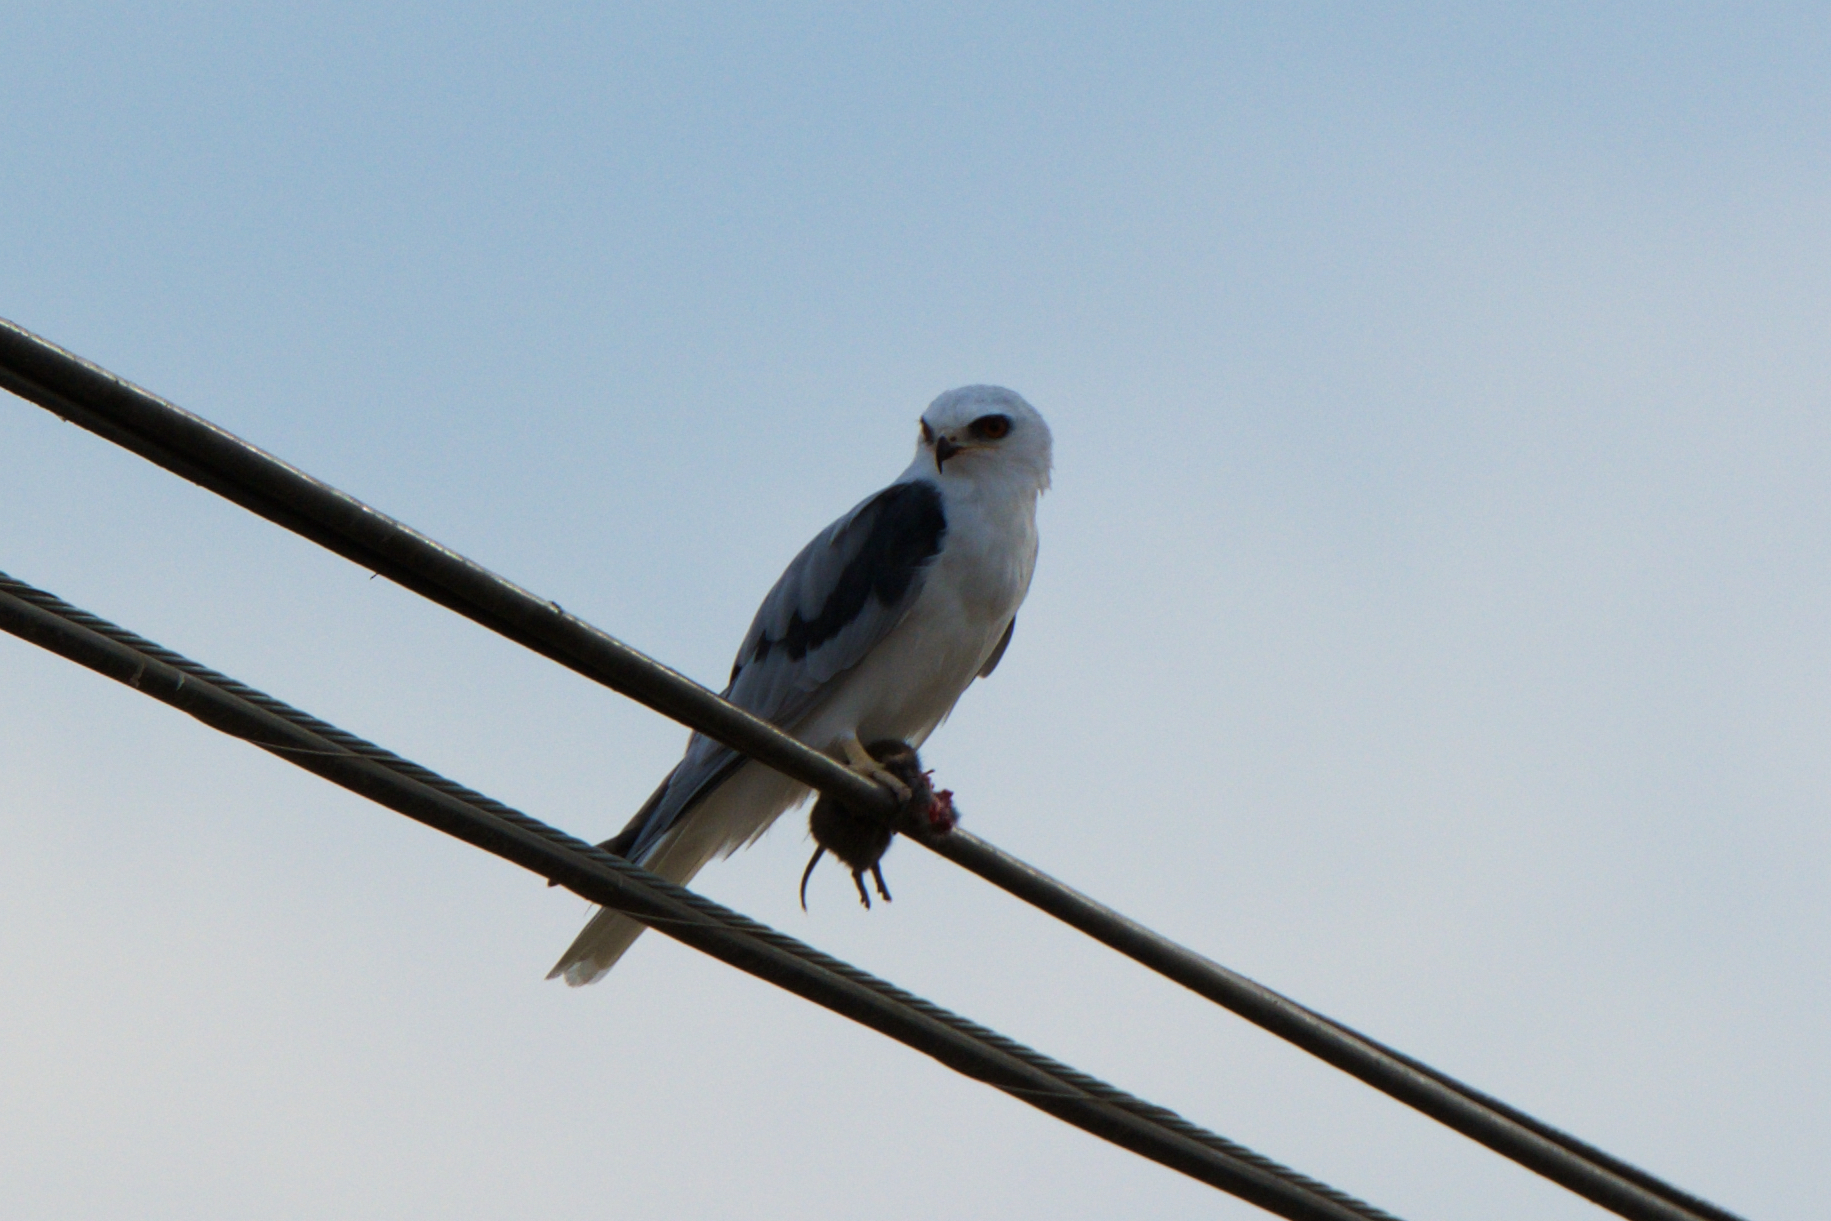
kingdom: Animalia
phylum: Chordata
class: Aves
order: Accipitriformes
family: Accipitridae
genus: Elanus
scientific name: Elanus leucurus
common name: White-tailed kite
